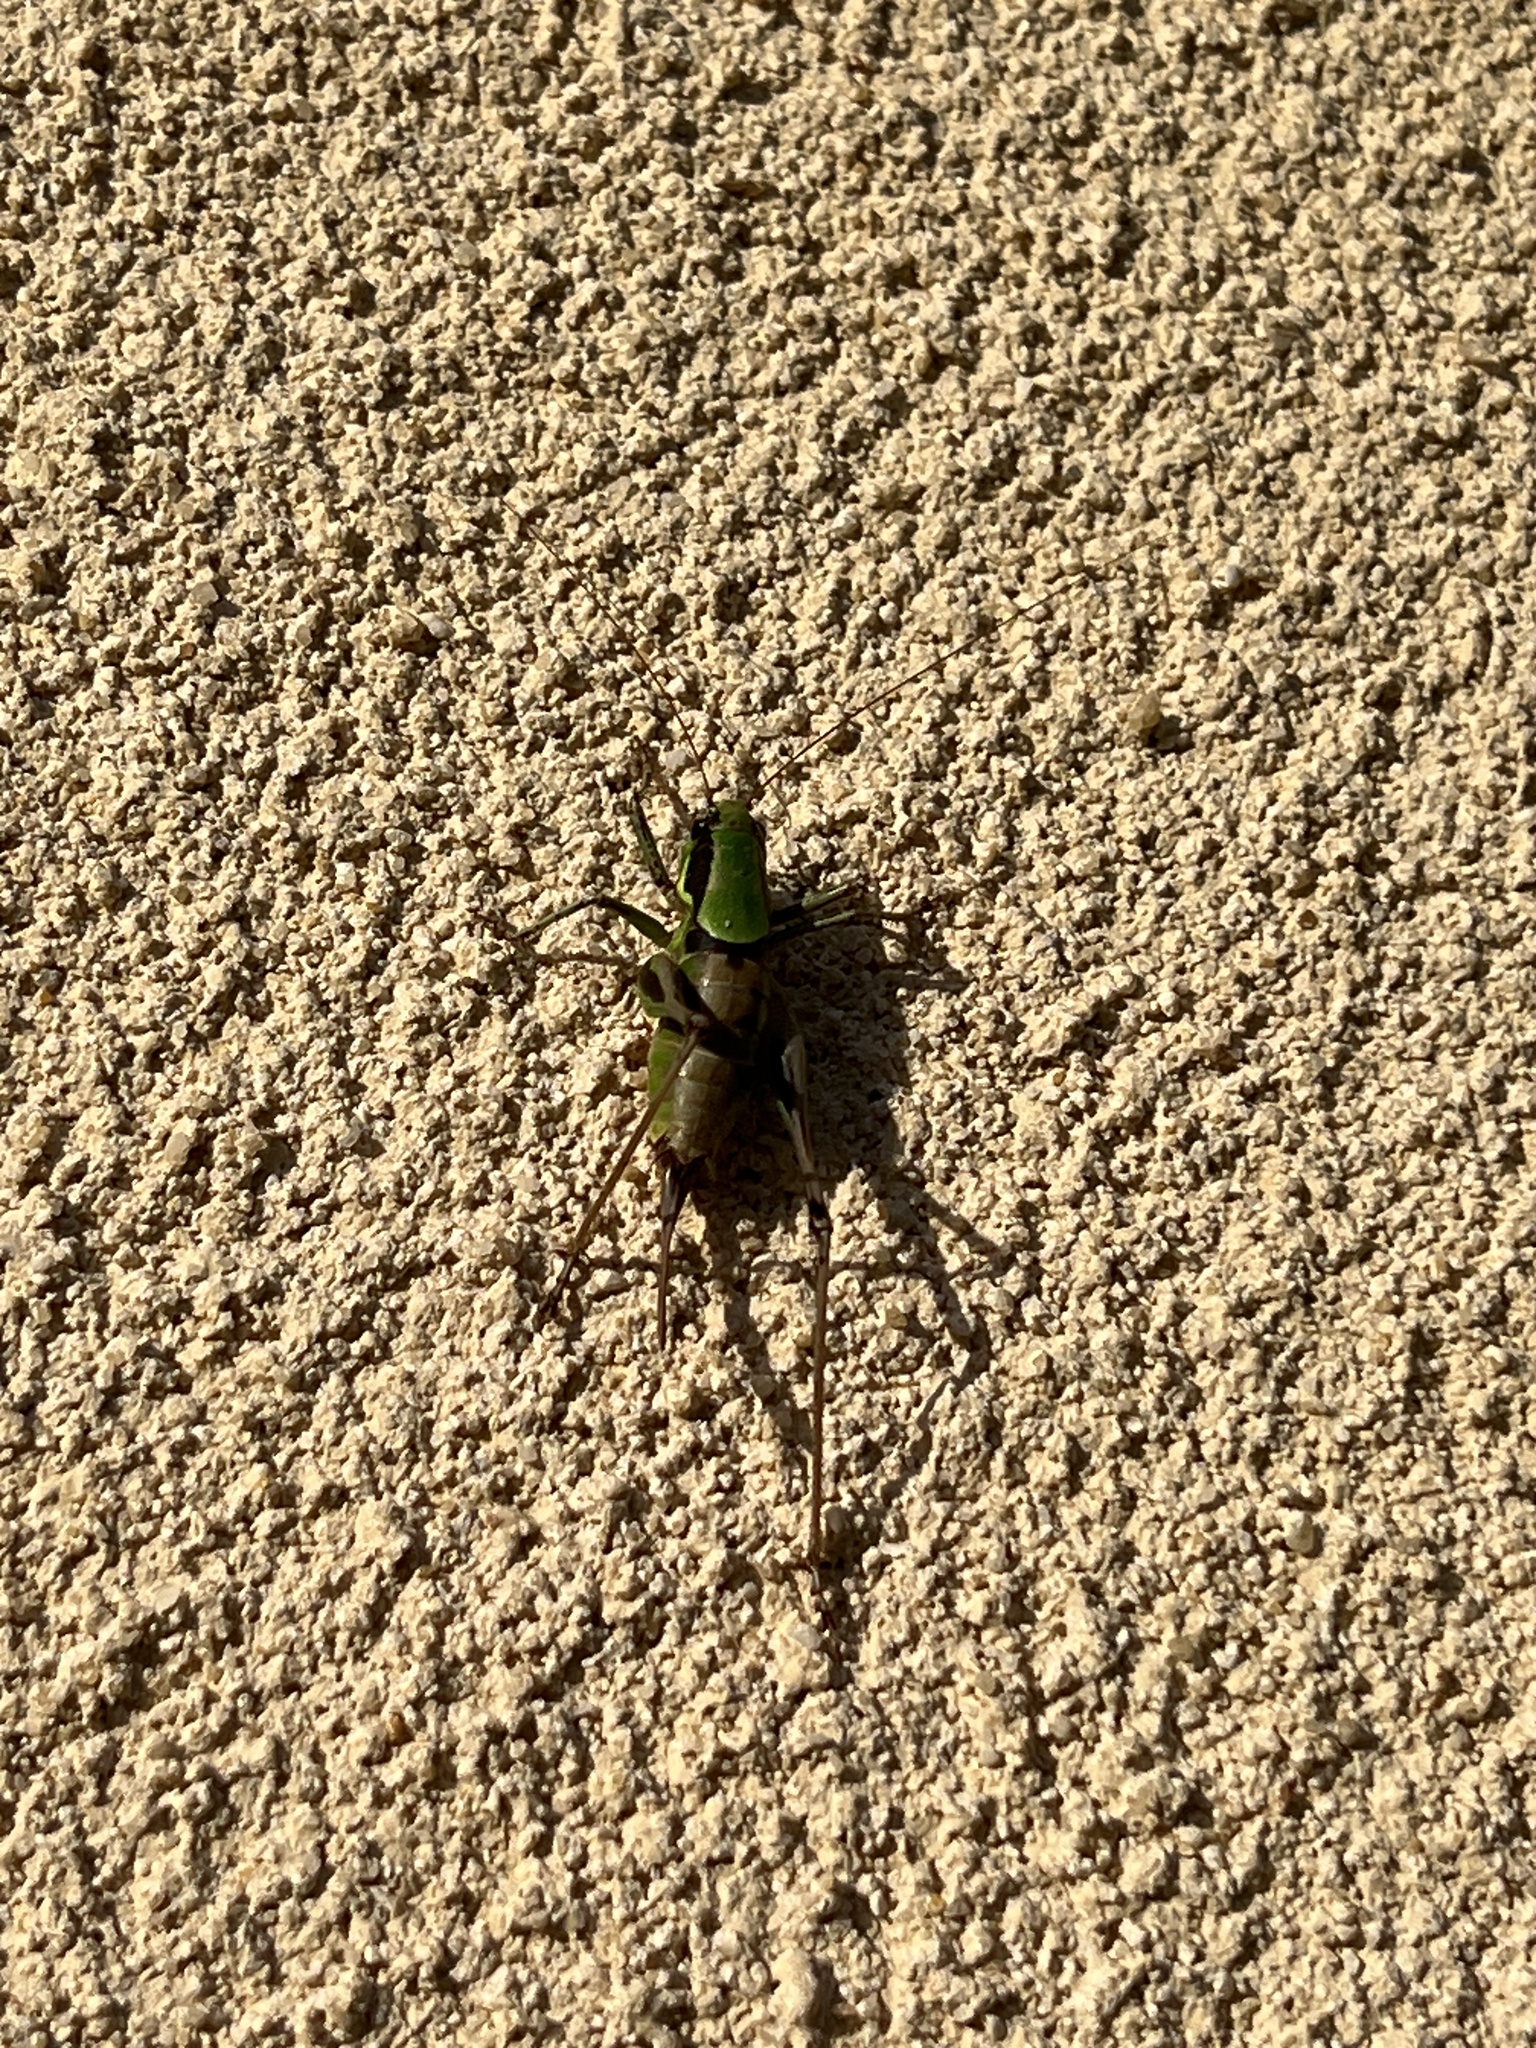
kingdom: Animalia
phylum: Arthropoda
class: Insecta
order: Orthoptera
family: Tettigoniidae
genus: Eupholidoptera
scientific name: Eupholidoptera chabrieri
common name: Chabrier's marbled bush-cricket
